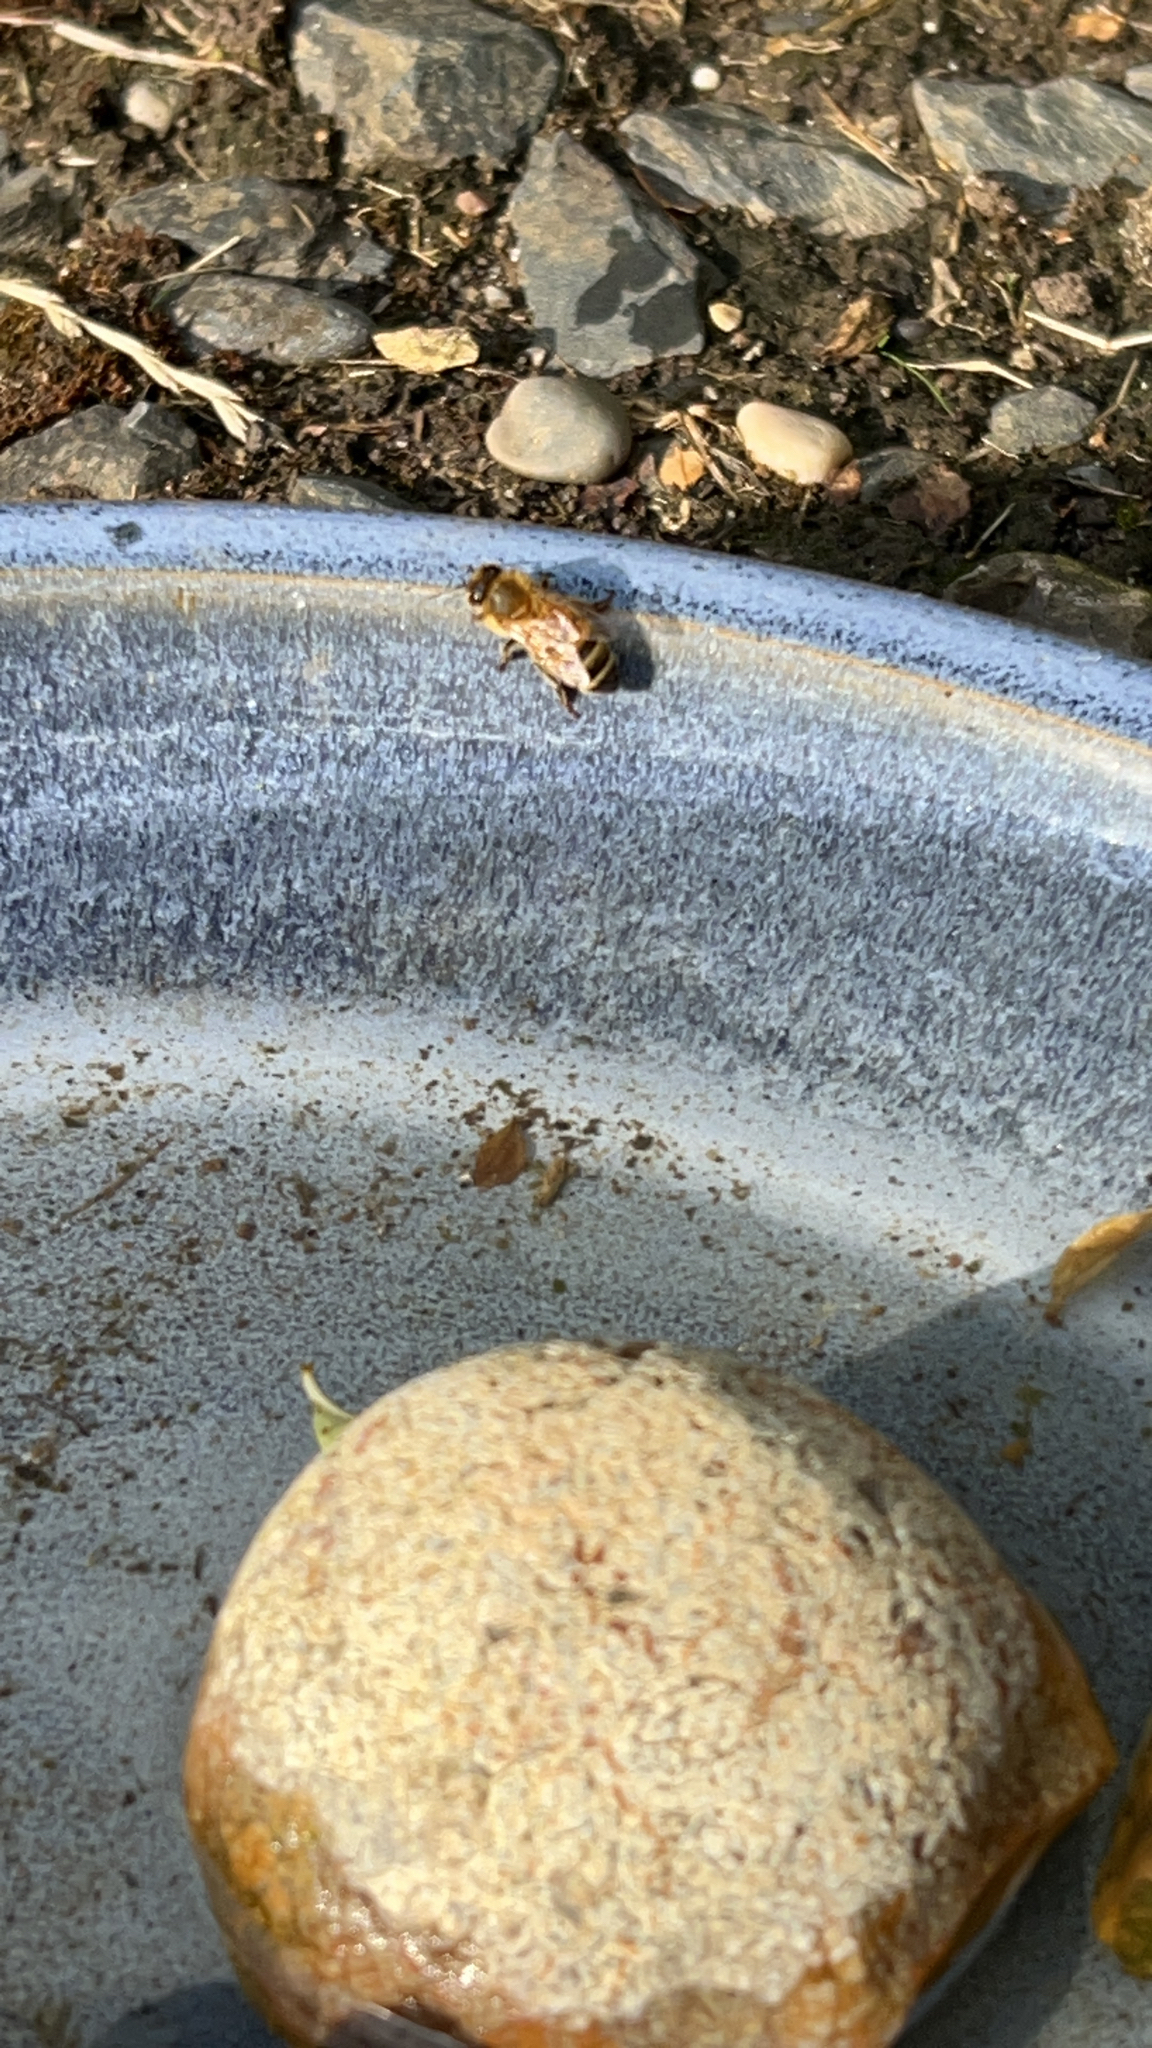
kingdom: Animalia
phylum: Arthropoda
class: Insecta
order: Hymenoptera
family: Apidae
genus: Apis
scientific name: Apis mellifera
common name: Honey bee
